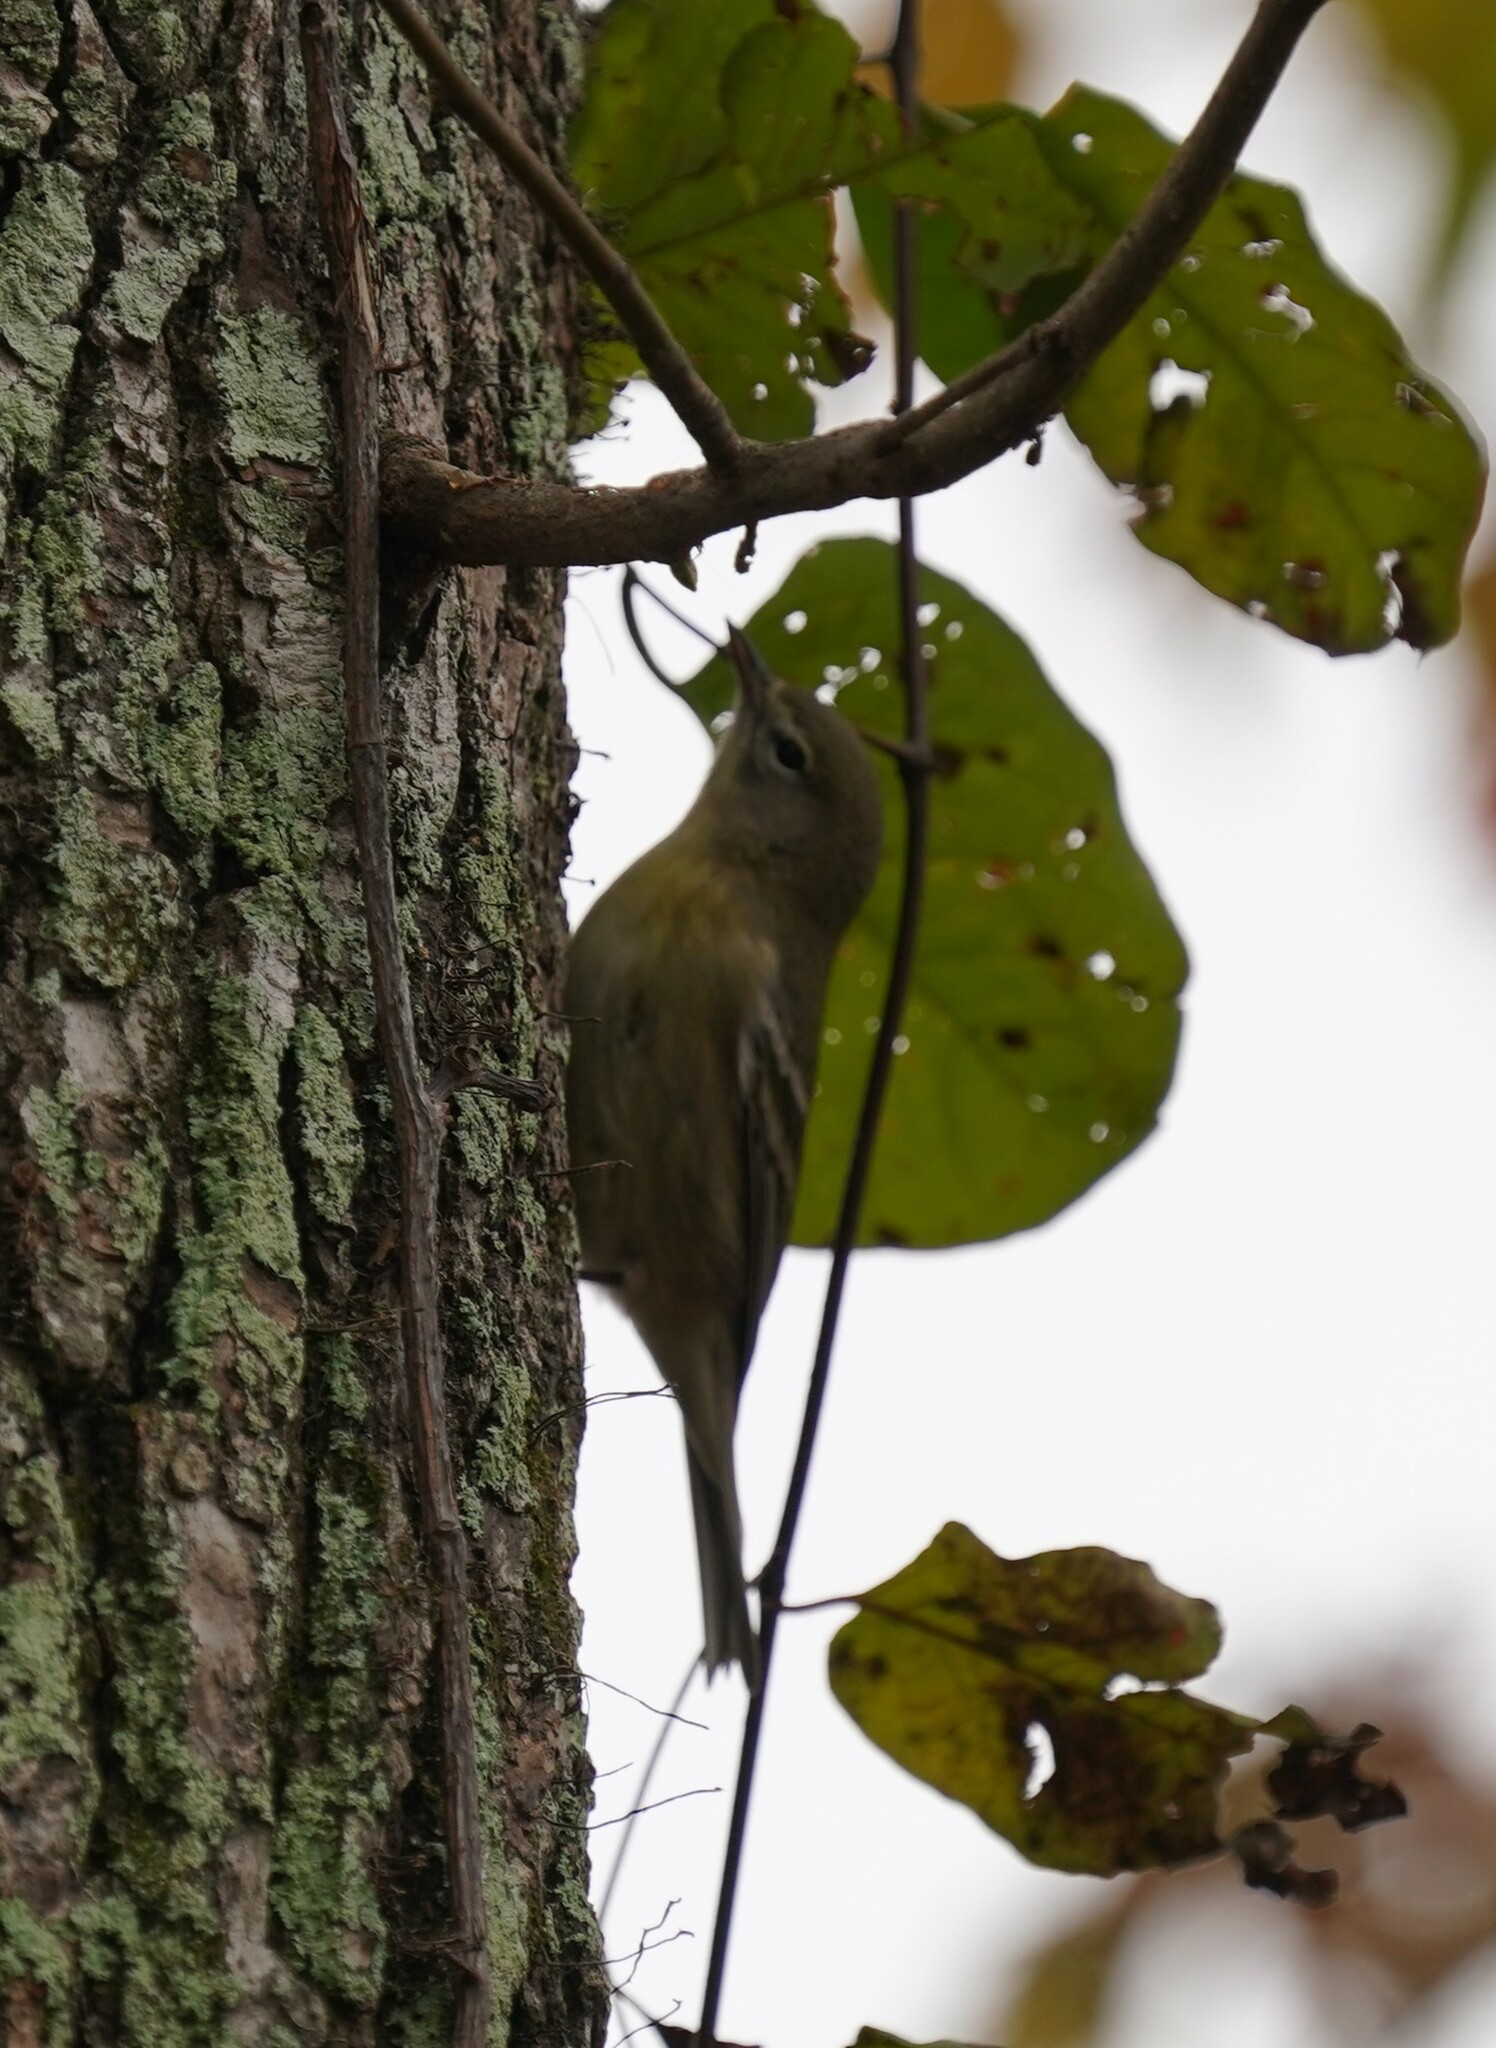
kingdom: Animalia
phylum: Chordata
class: Aves
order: Passeriformes
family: Parulidae
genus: Setophaga
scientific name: Setophaga pinus
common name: Pine warbler
